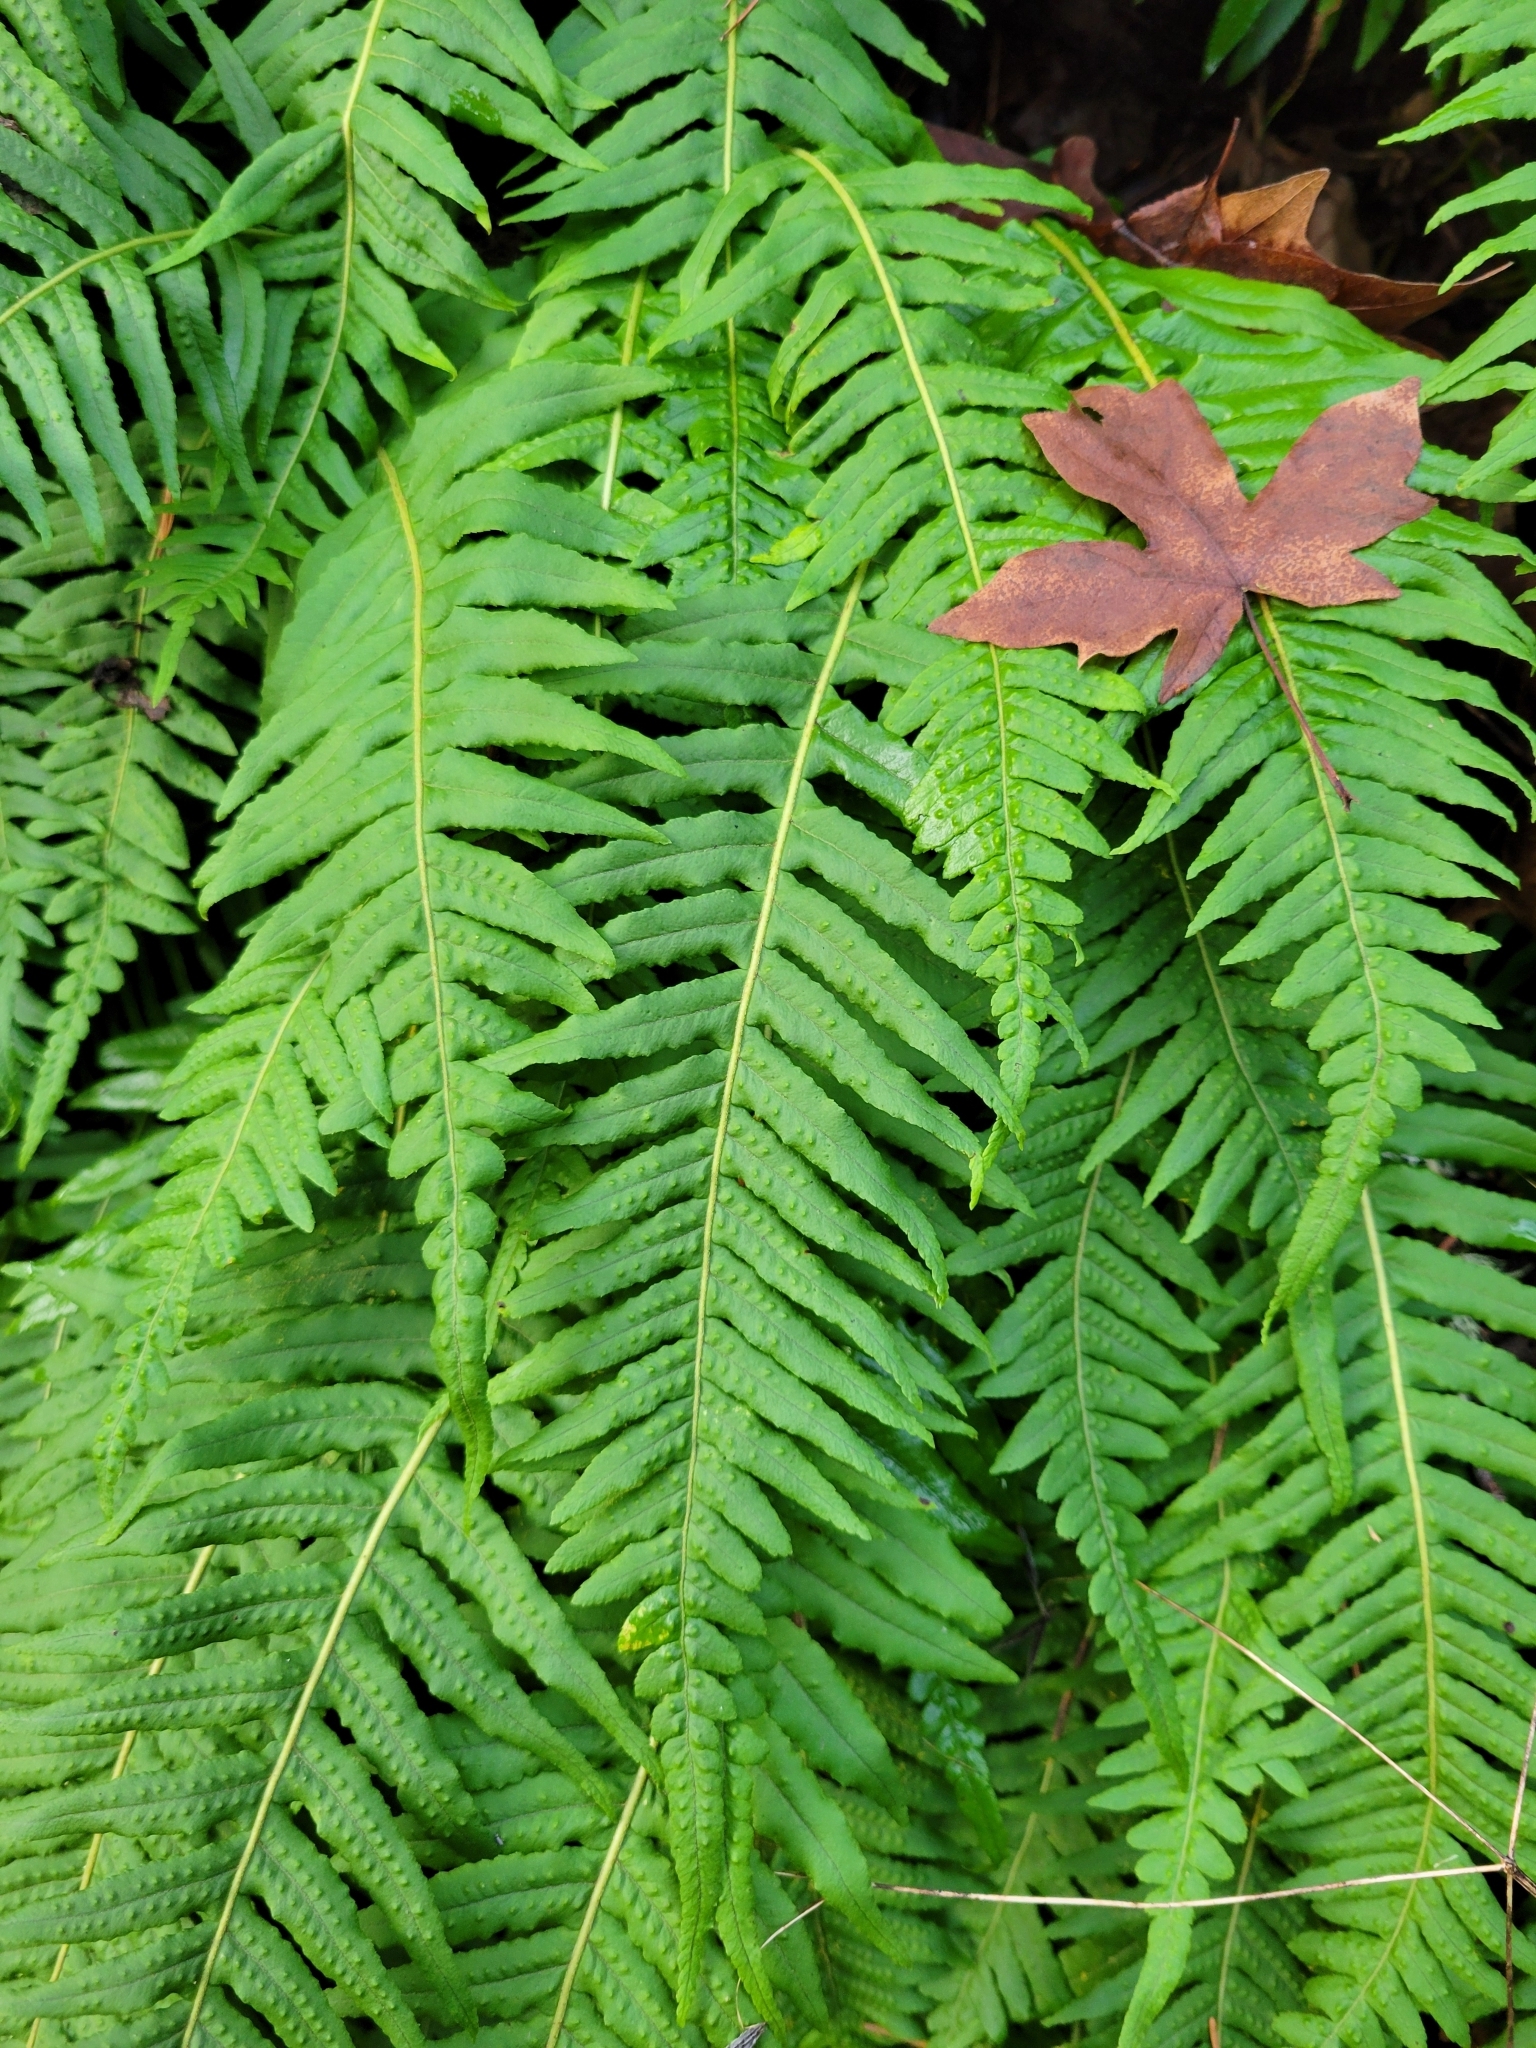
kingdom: Plantae
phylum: Tracheophyta
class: Polypodiopsida
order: Polypodiales
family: Polypodiaceae
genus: Polypodium
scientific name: Polypodium glycyrrhiza
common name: Licorice fern
